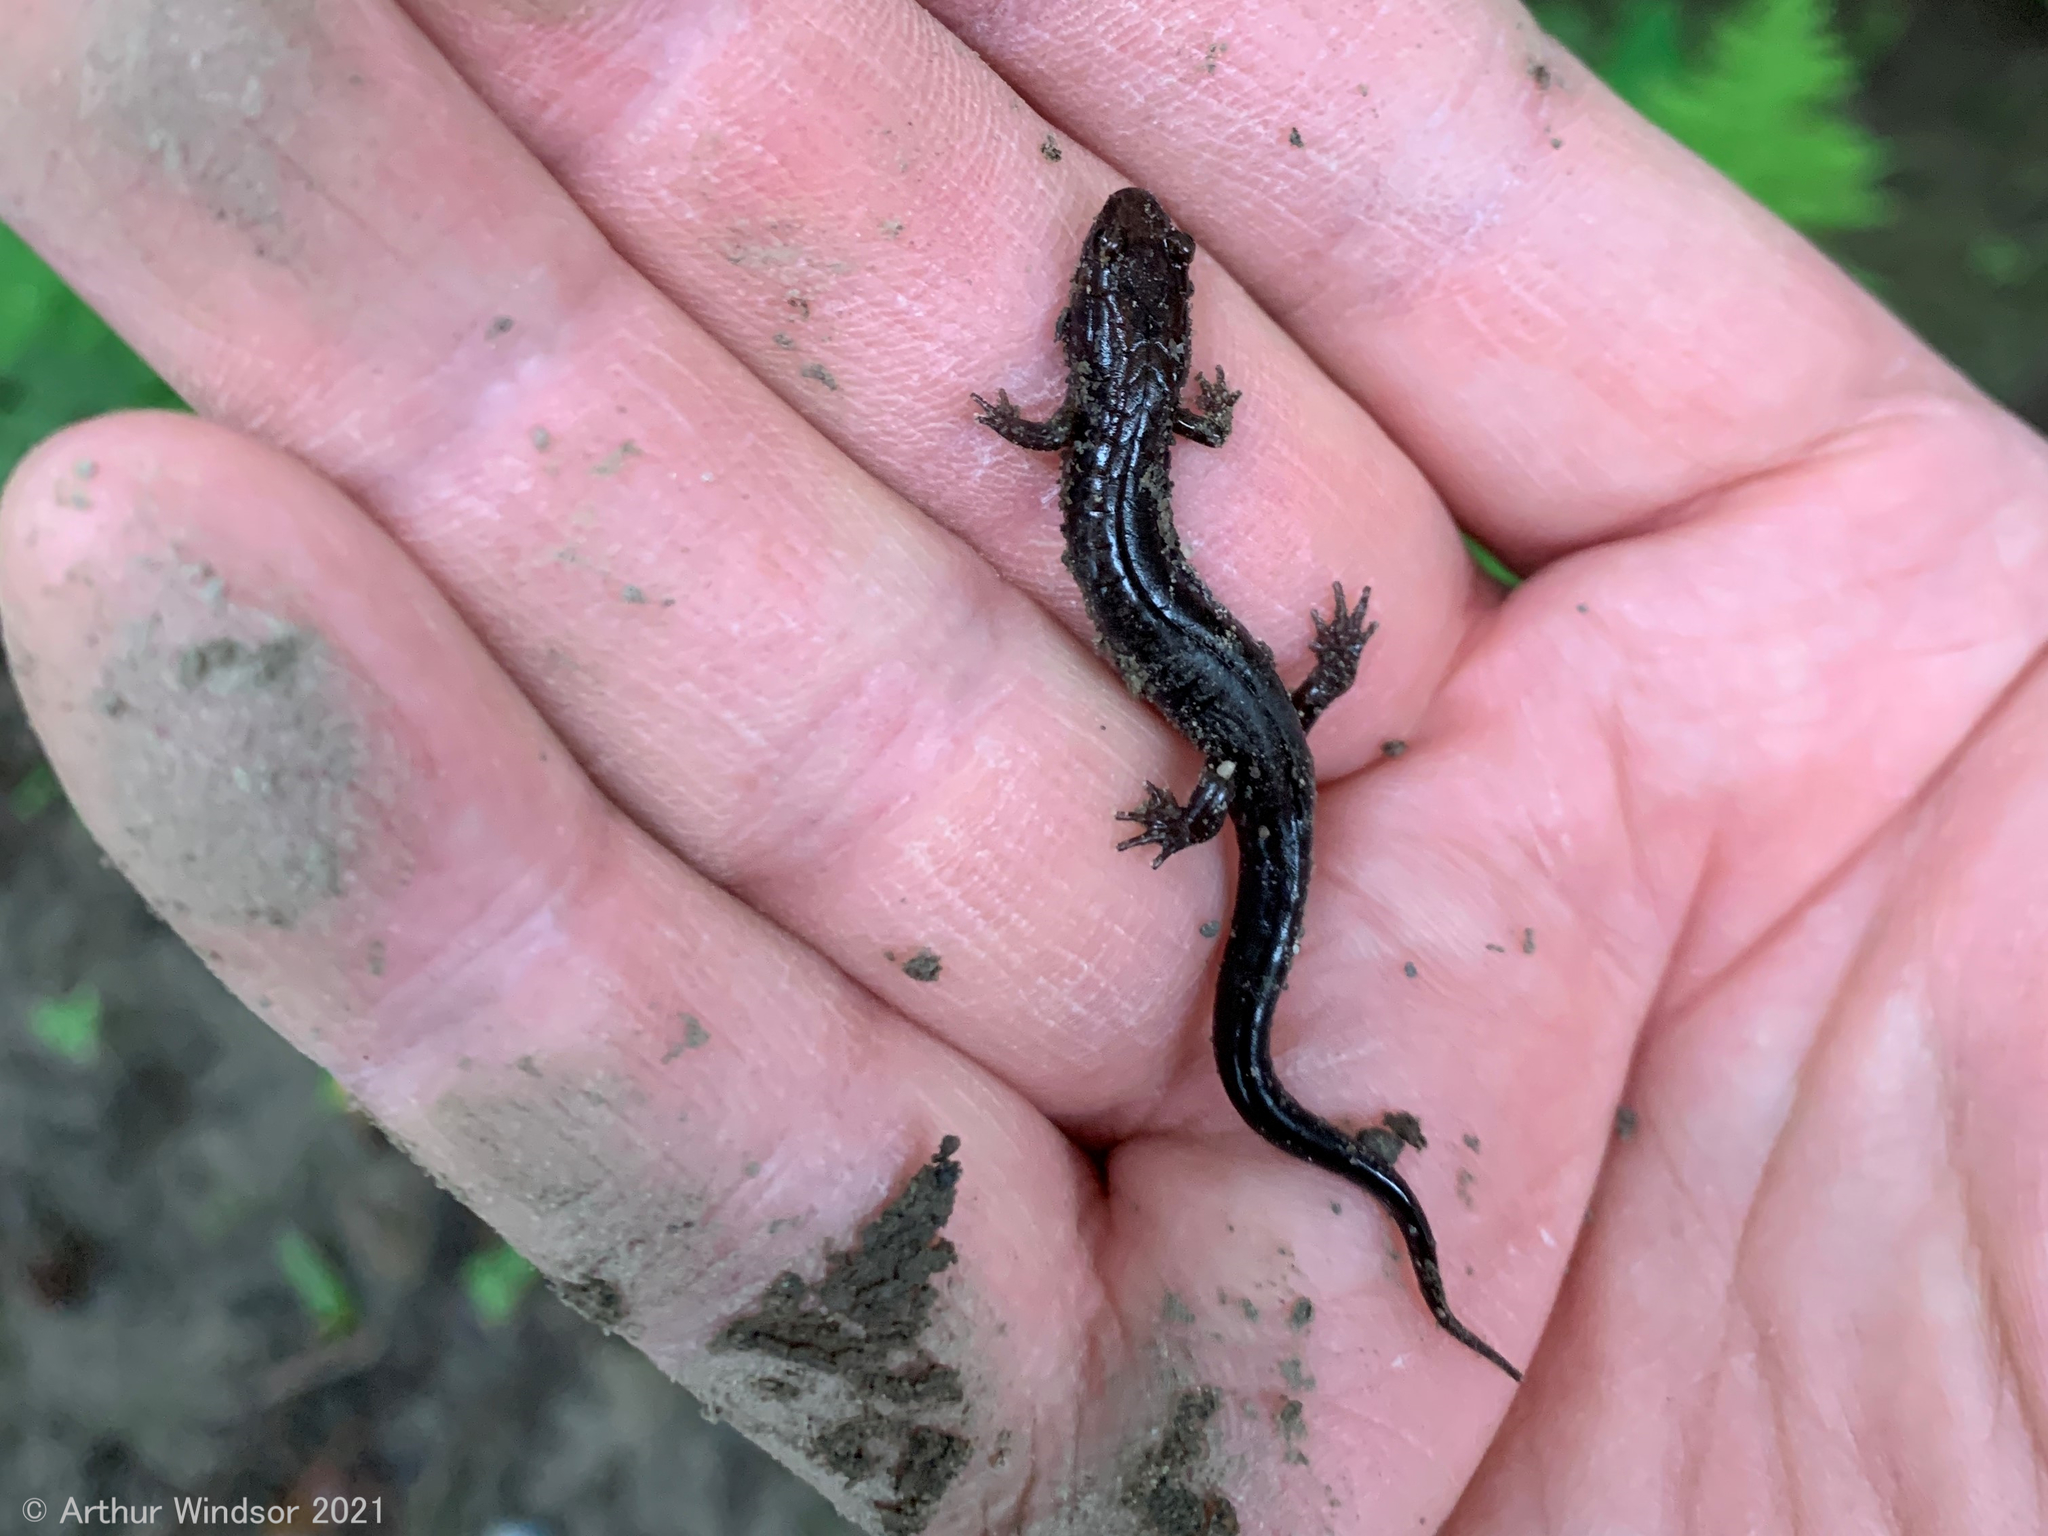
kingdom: Animalia
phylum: Chordata
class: Amphibia
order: Caudata
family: Plethodontidae
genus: Desmognathus
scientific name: Desmognathus ochrophaeus
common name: Allegheny mountain dusky salamander
